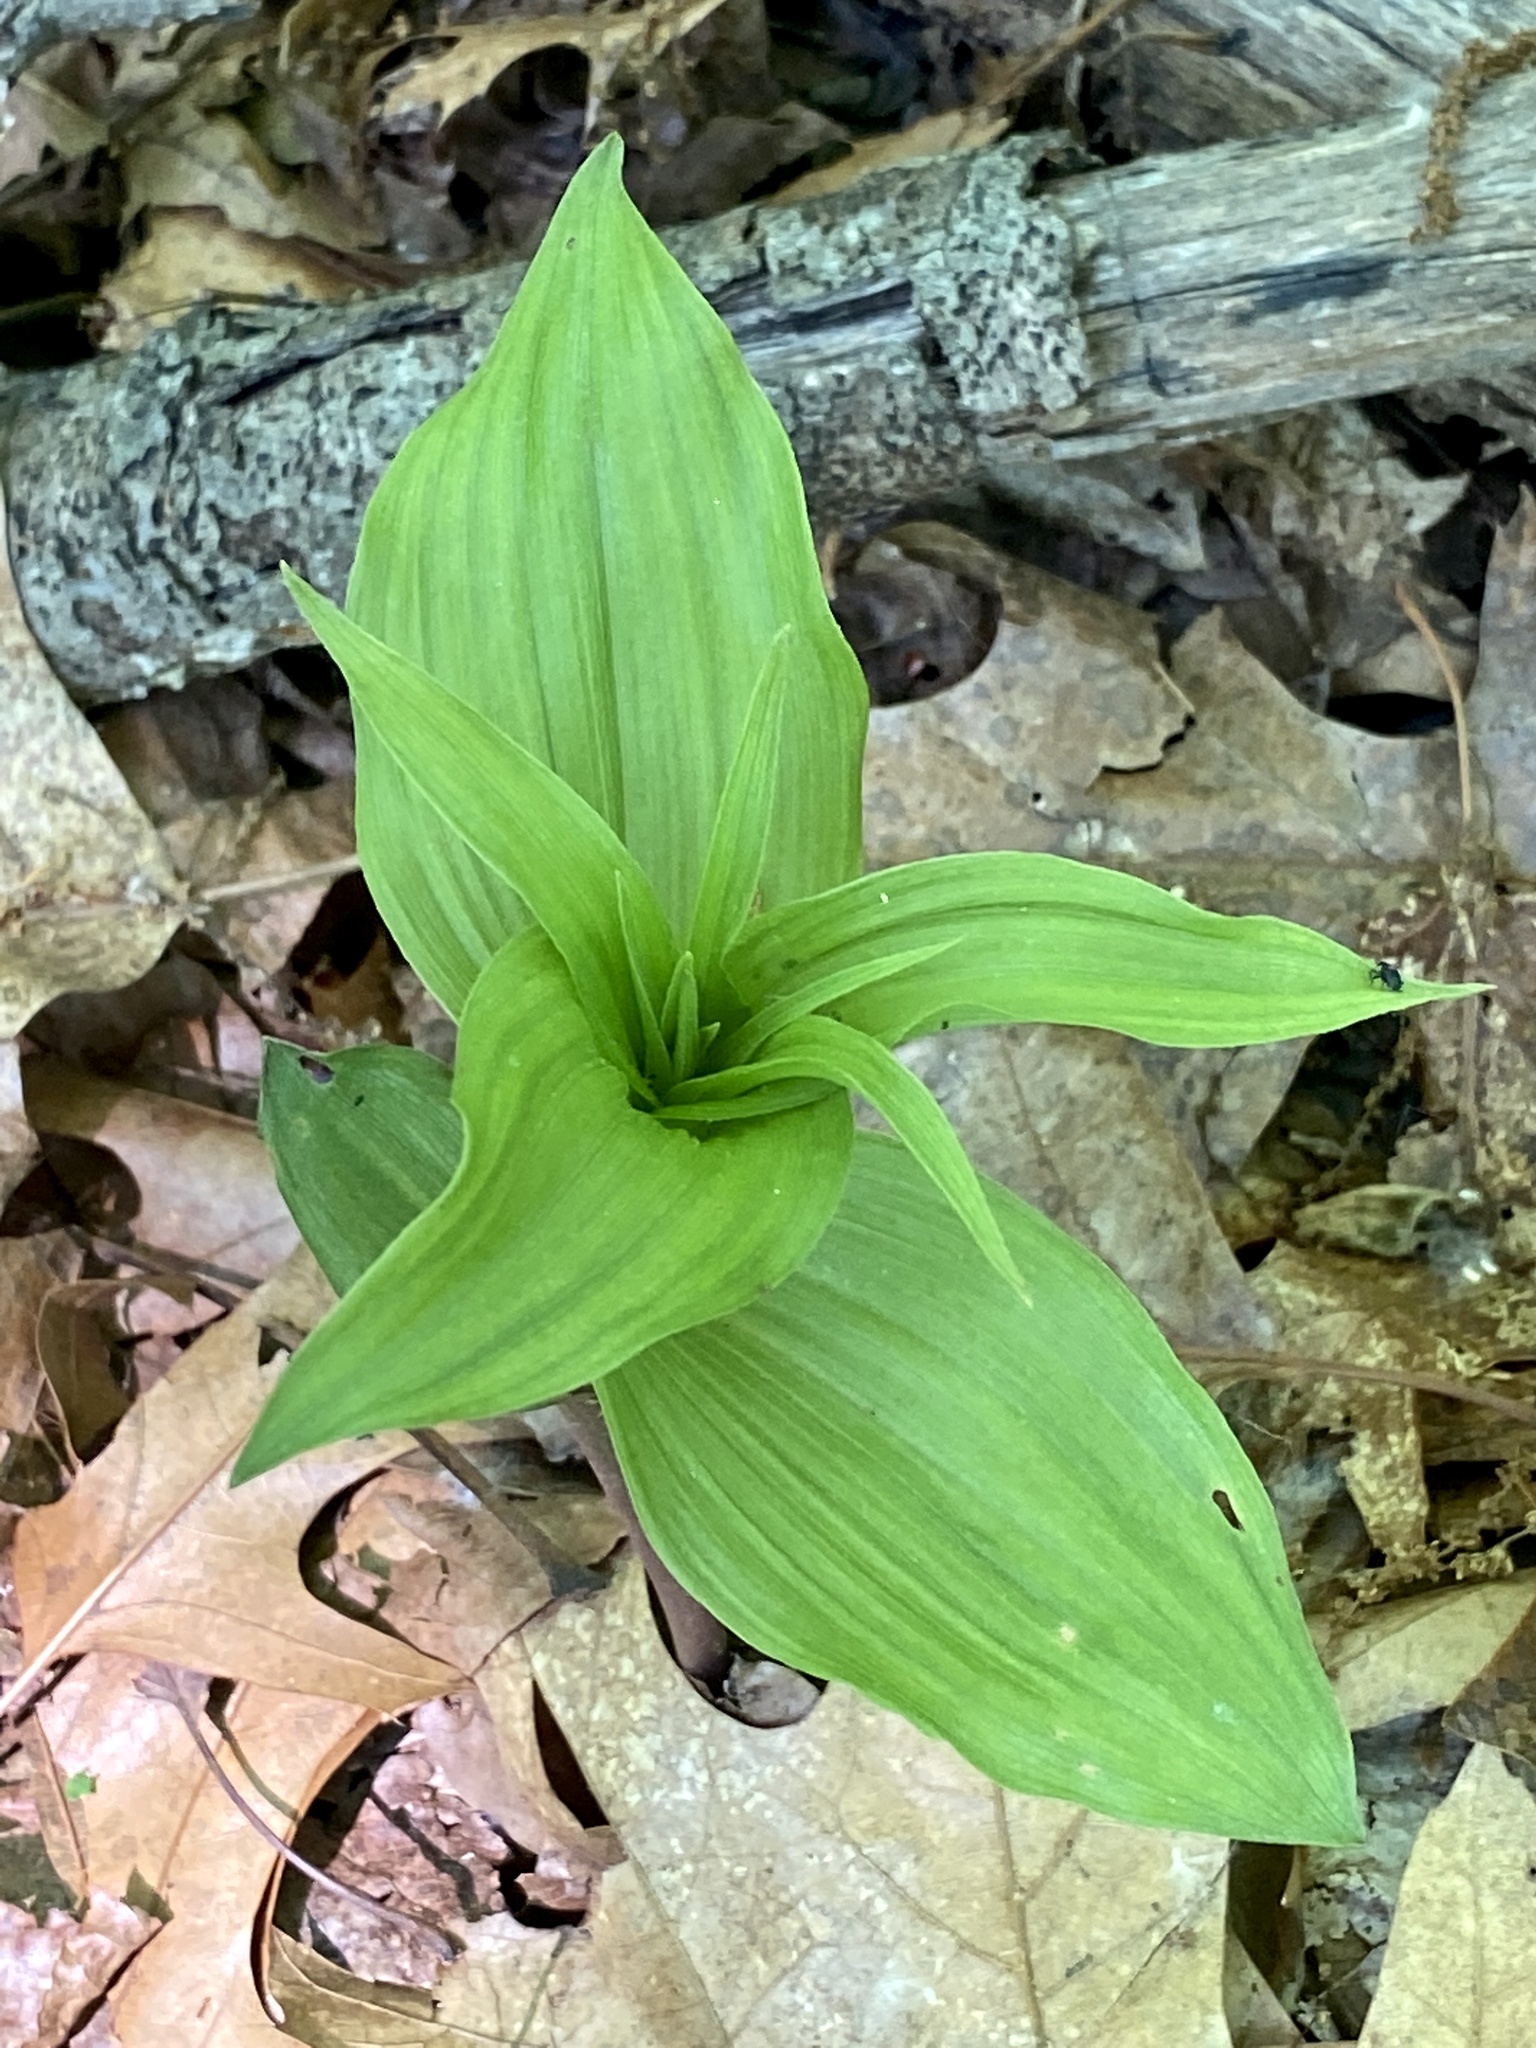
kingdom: Plantae
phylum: Tracheophyta
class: Liliopsida
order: Asparagales
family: Orchidaceae
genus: Epipactis
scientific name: Epipactis helleborine
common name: Broad-leaved helleborine
